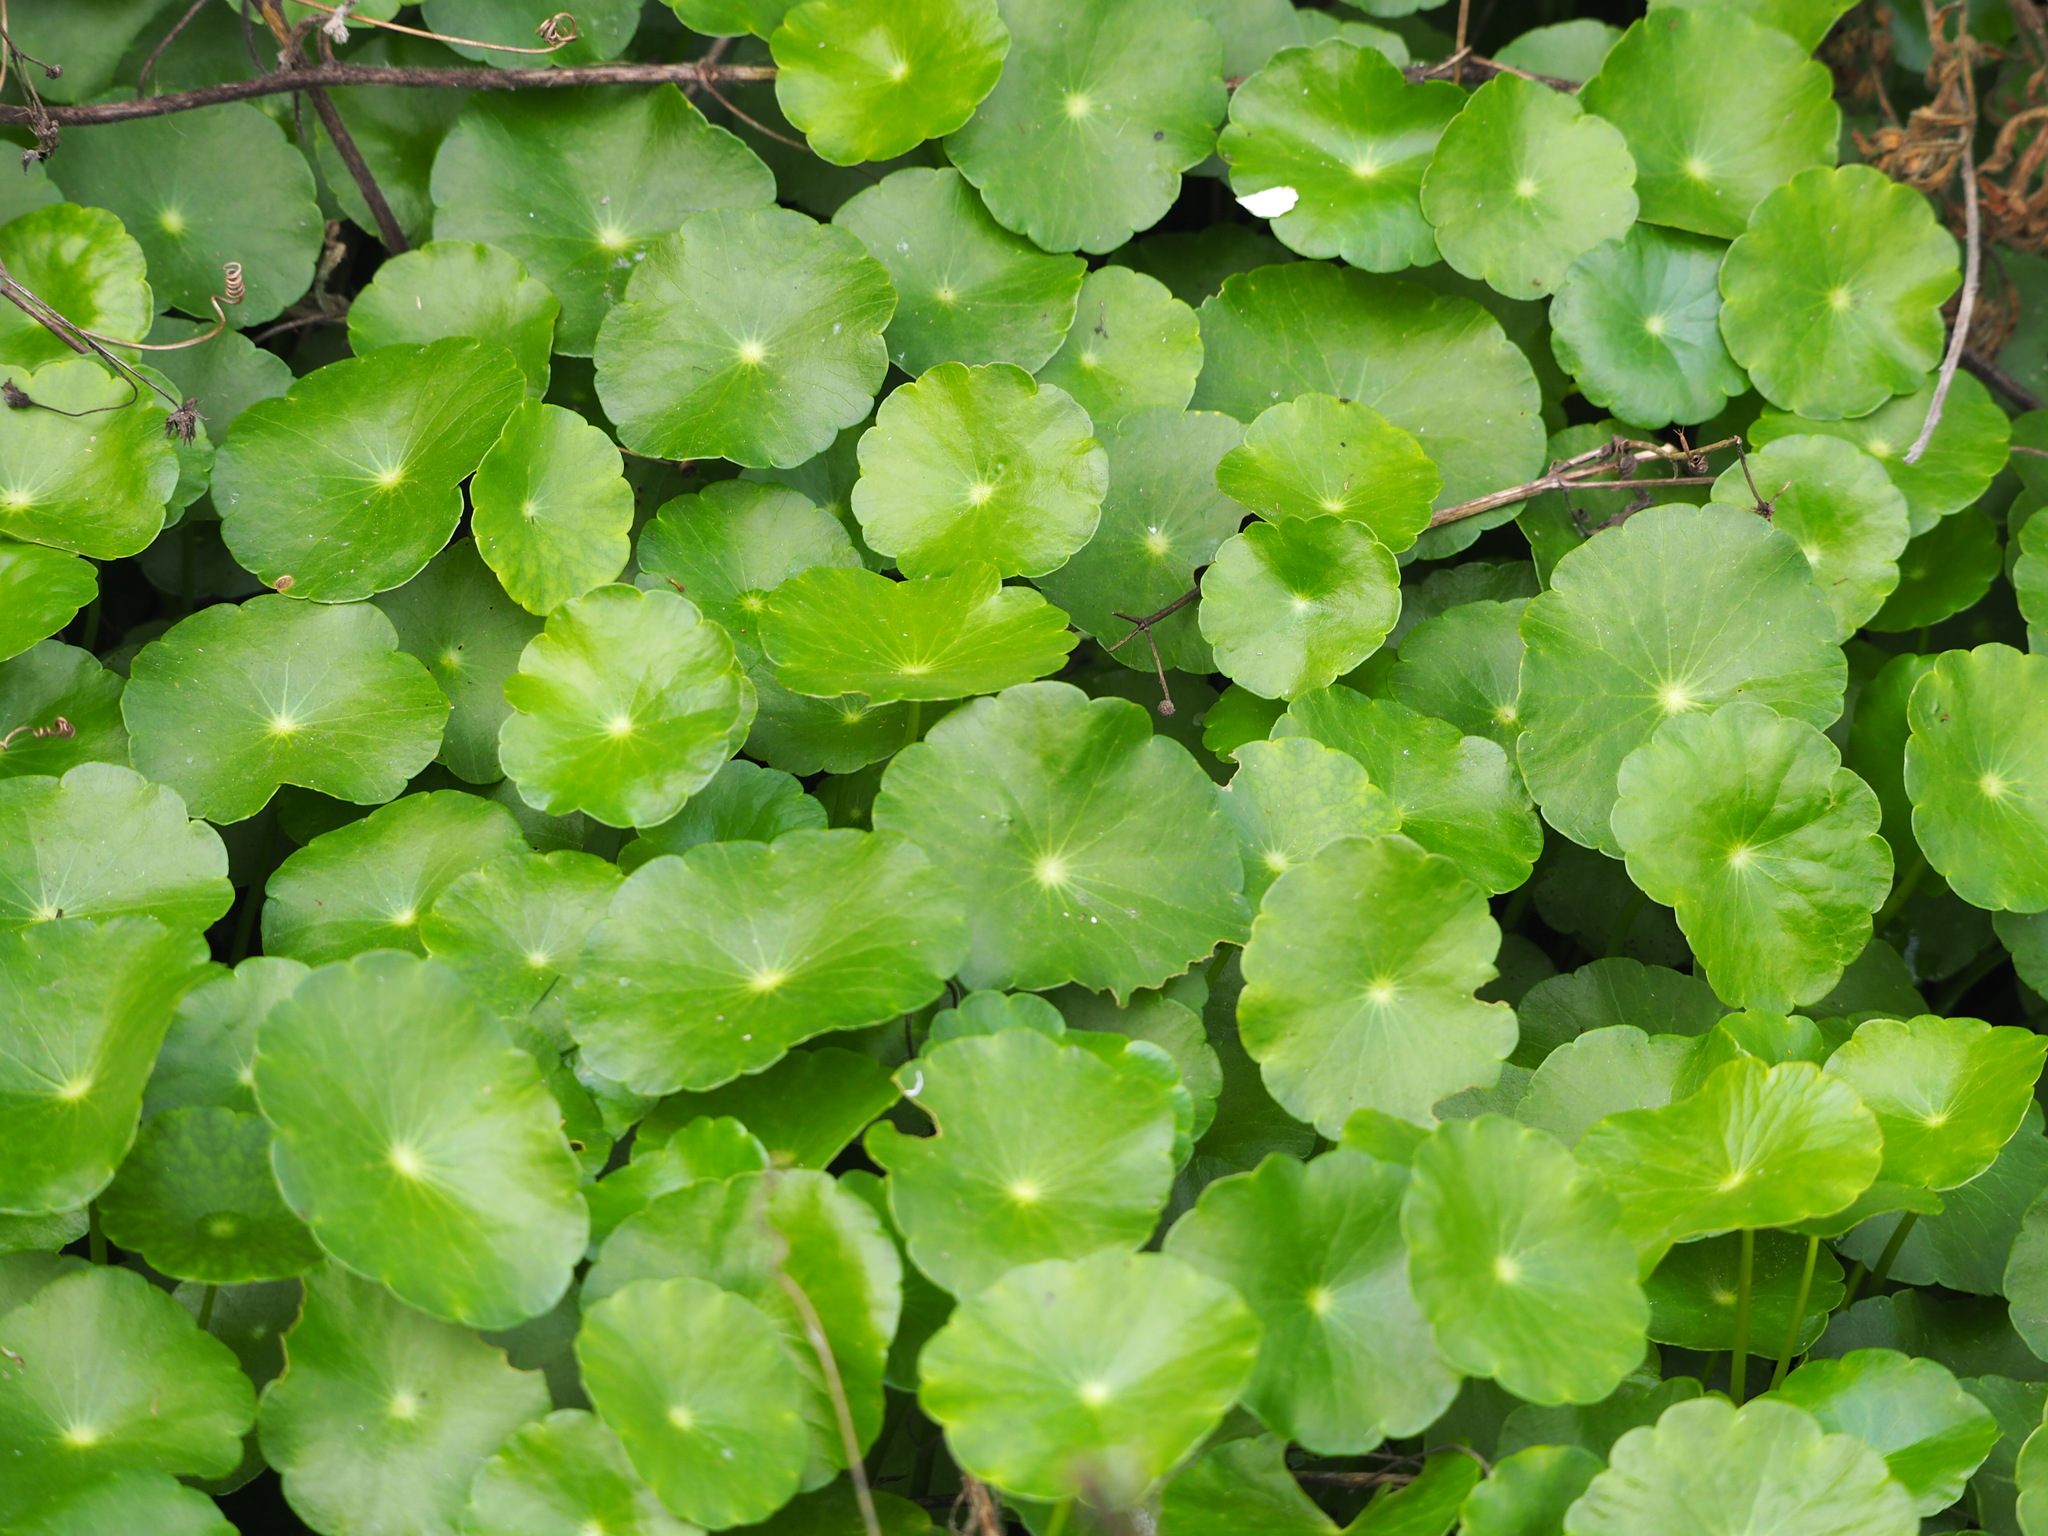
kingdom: Plantae
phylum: Tracheophyta
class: Magnoliopsida
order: Apiales
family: Araliaceae
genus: Hydrocotyle
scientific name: Hydrocotyle verticillata
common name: Whorled marshpennywort
